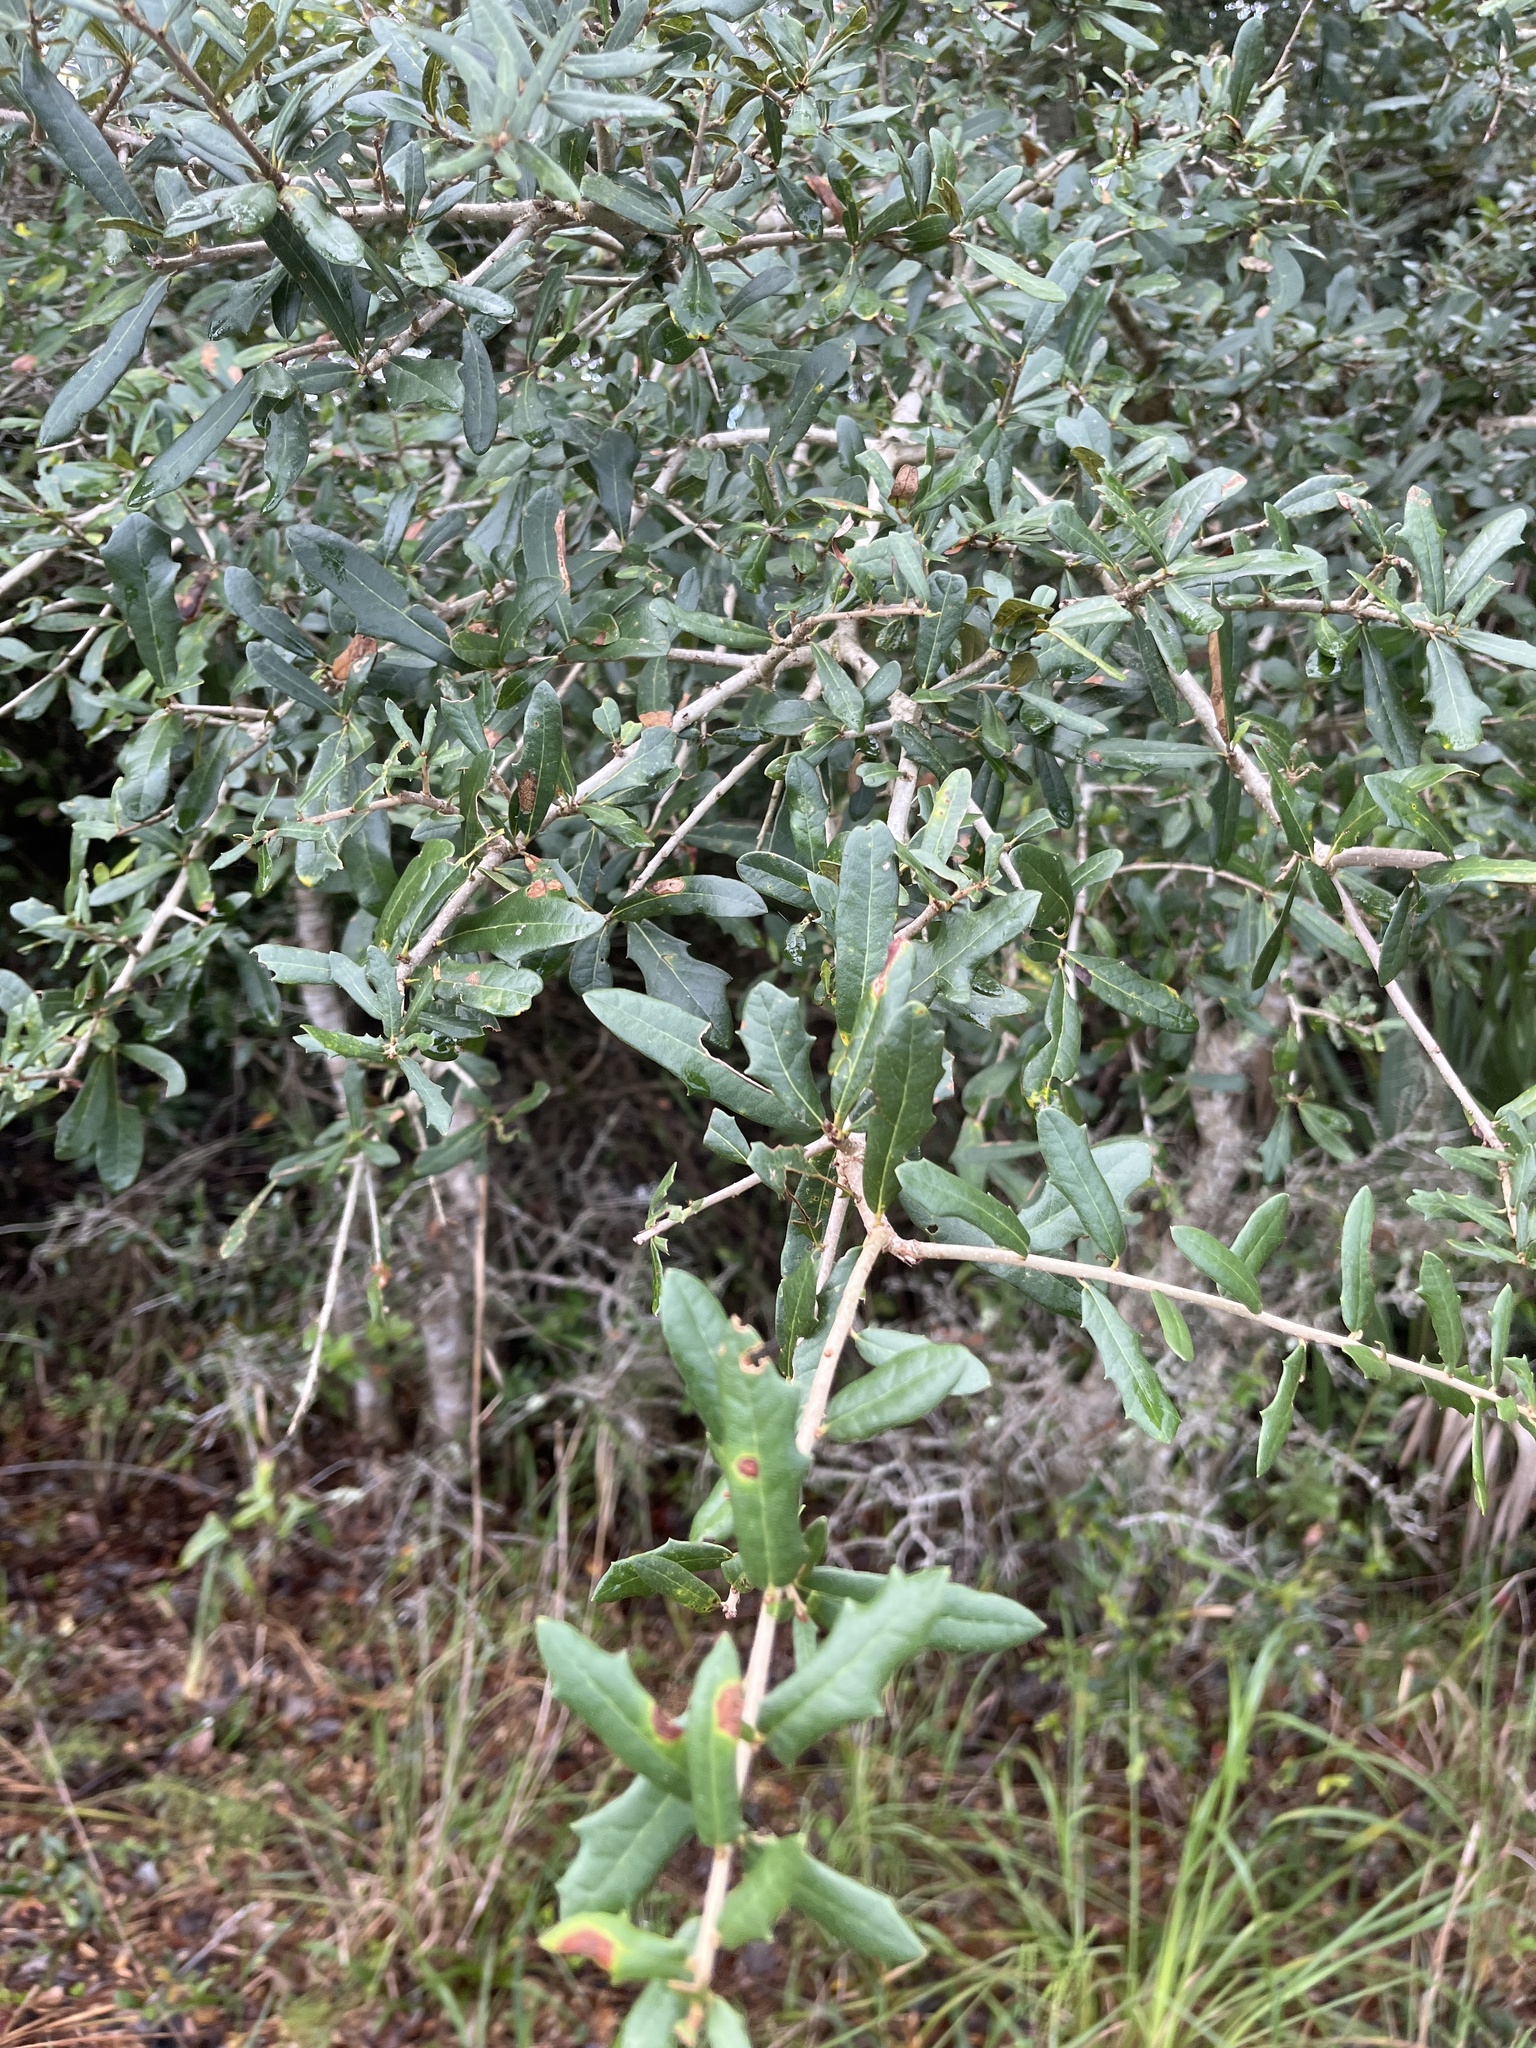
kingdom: Plantae
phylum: Tracheophyta
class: Magnoliopsida
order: Fagales
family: Fagaceae
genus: Quercus
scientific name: Quercus virginiana
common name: Southern live oak
